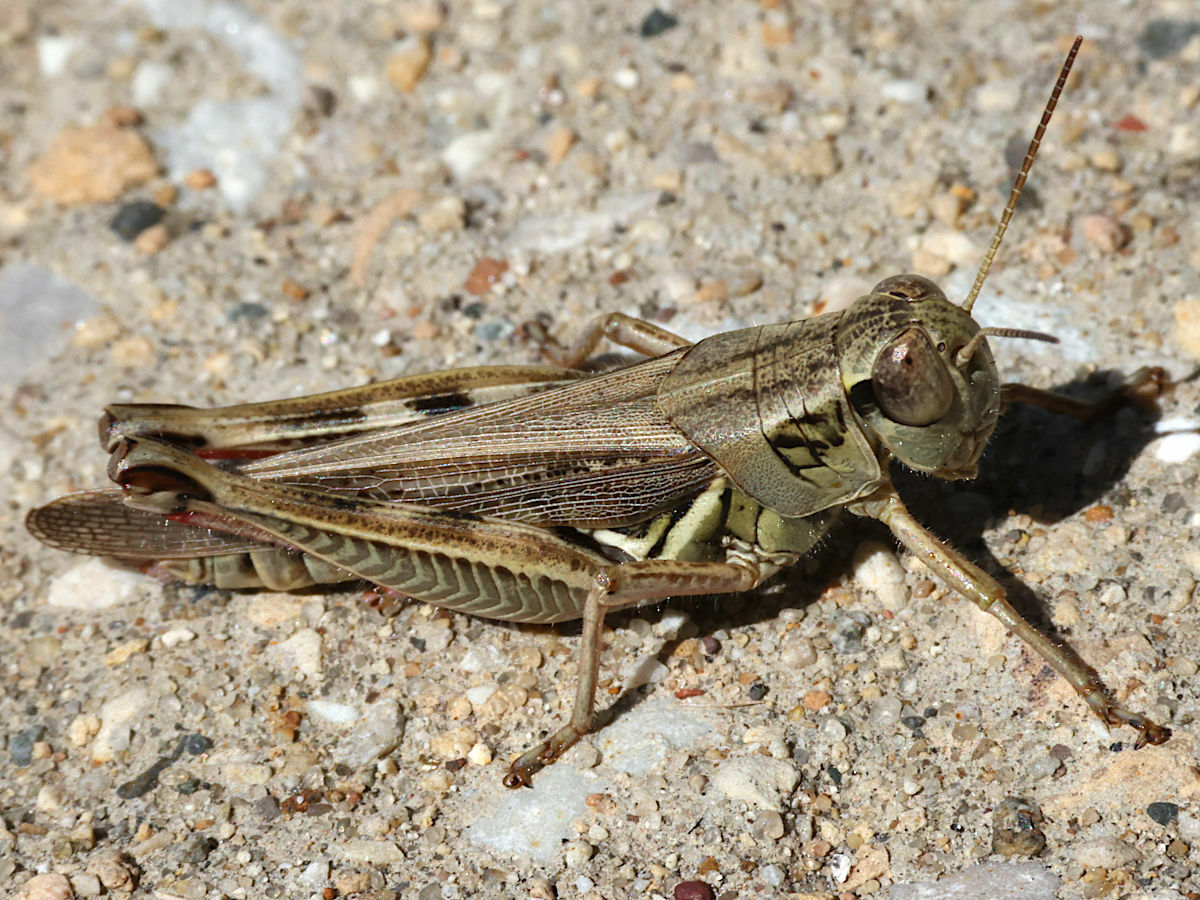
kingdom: Animalia
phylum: Arthropoda
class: Insecta
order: Orthoptera
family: Acrididae
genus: Melanoplus
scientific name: Melanoplus femurrubrum
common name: Red-legged grasshopper
